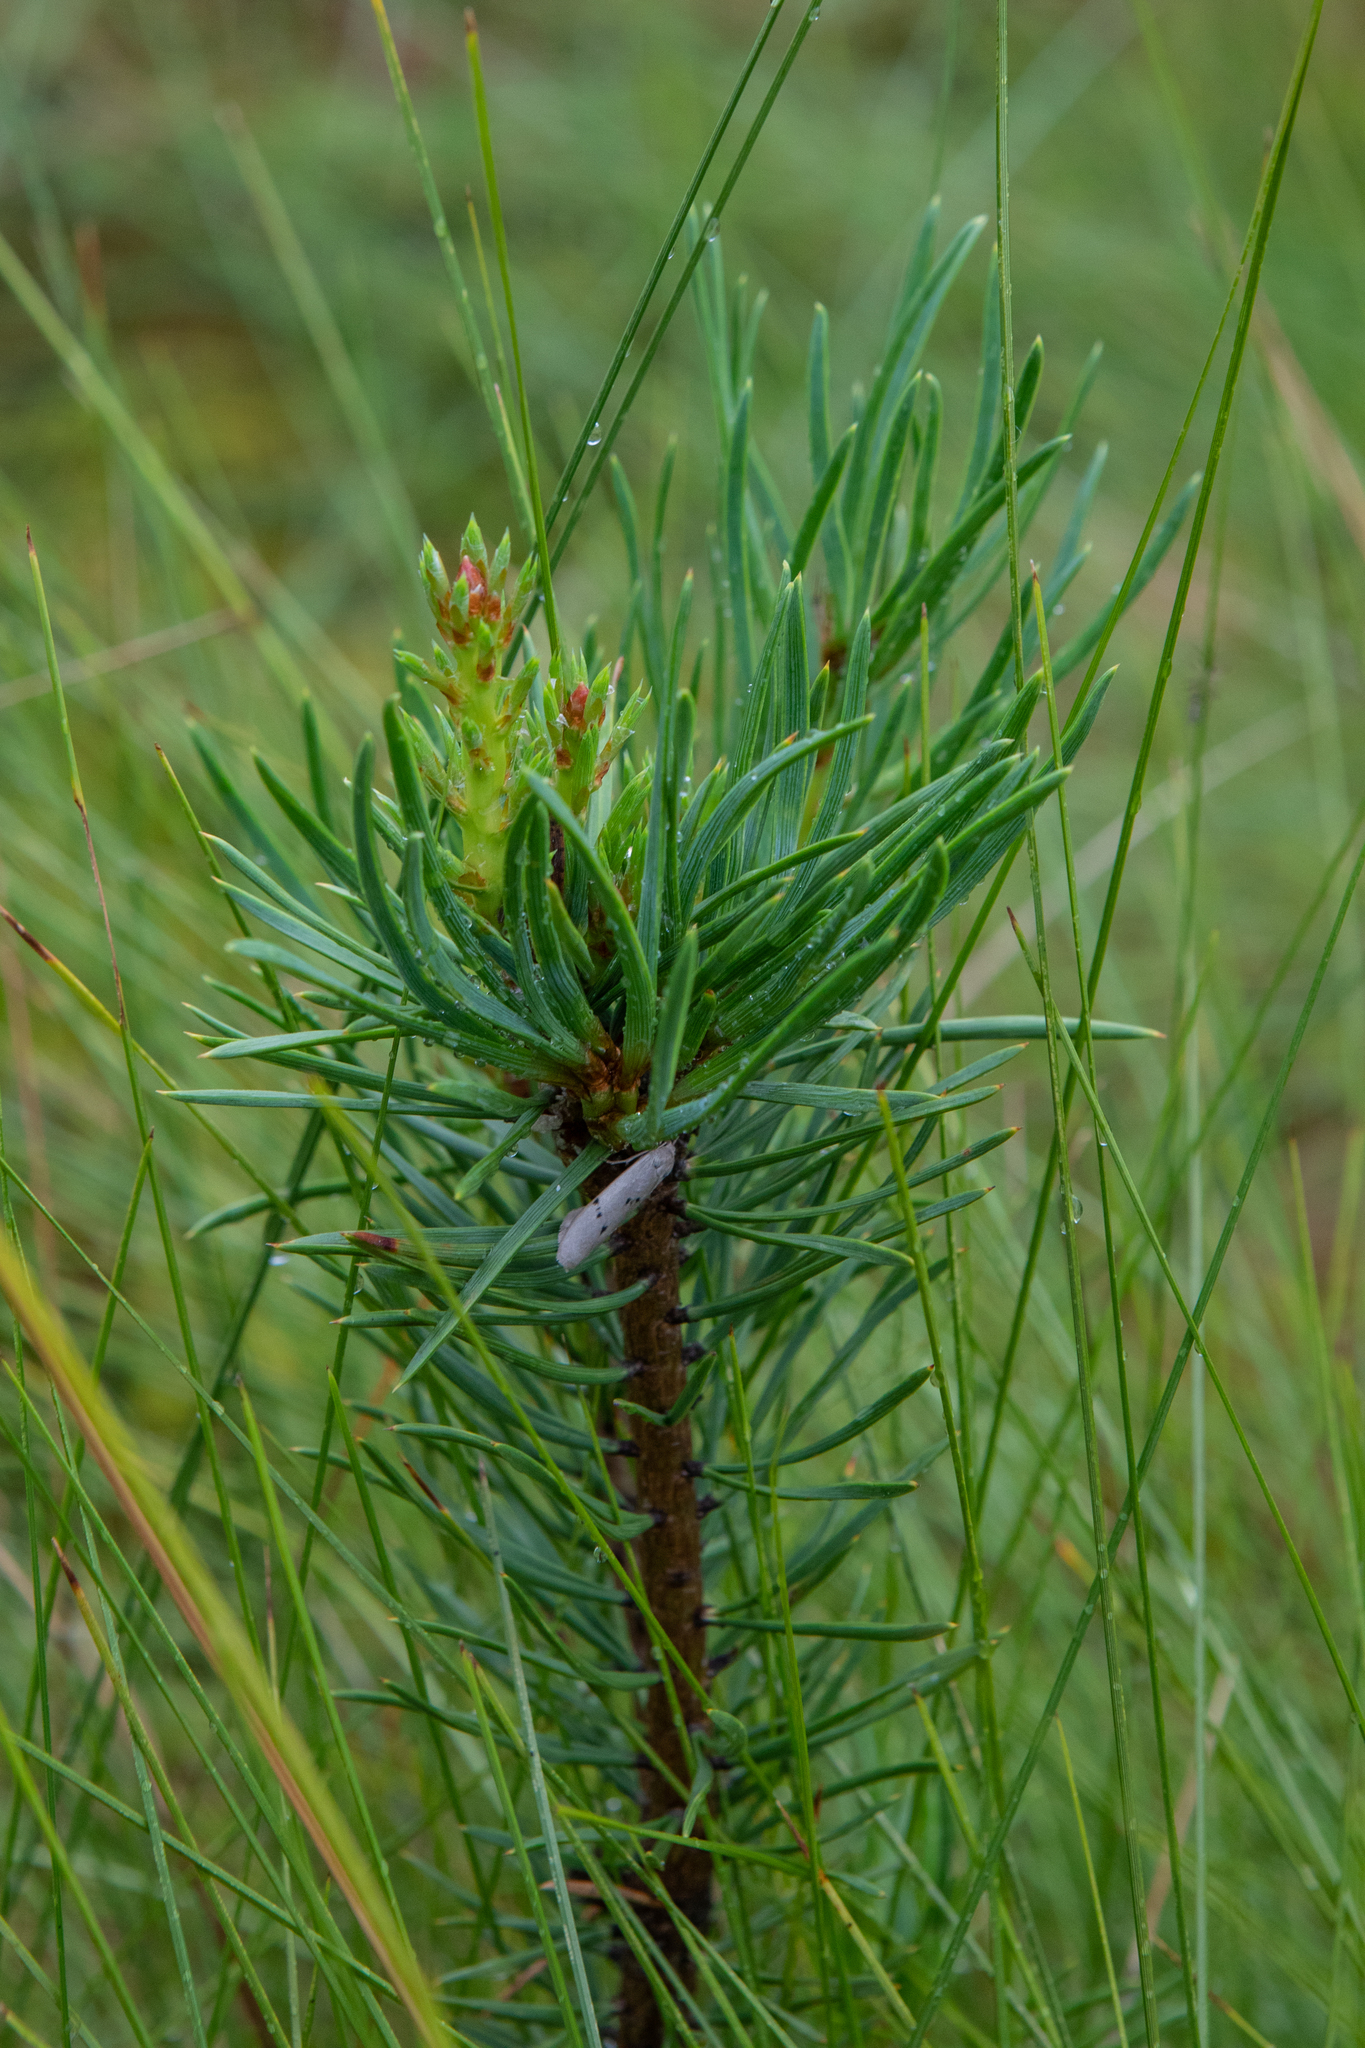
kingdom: Plantae
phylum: Tracheophyta
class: Pinopsida
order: Pinales
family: Pinaceae
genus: Pinus
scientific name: Pinus sylvestris
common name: Scots pine
